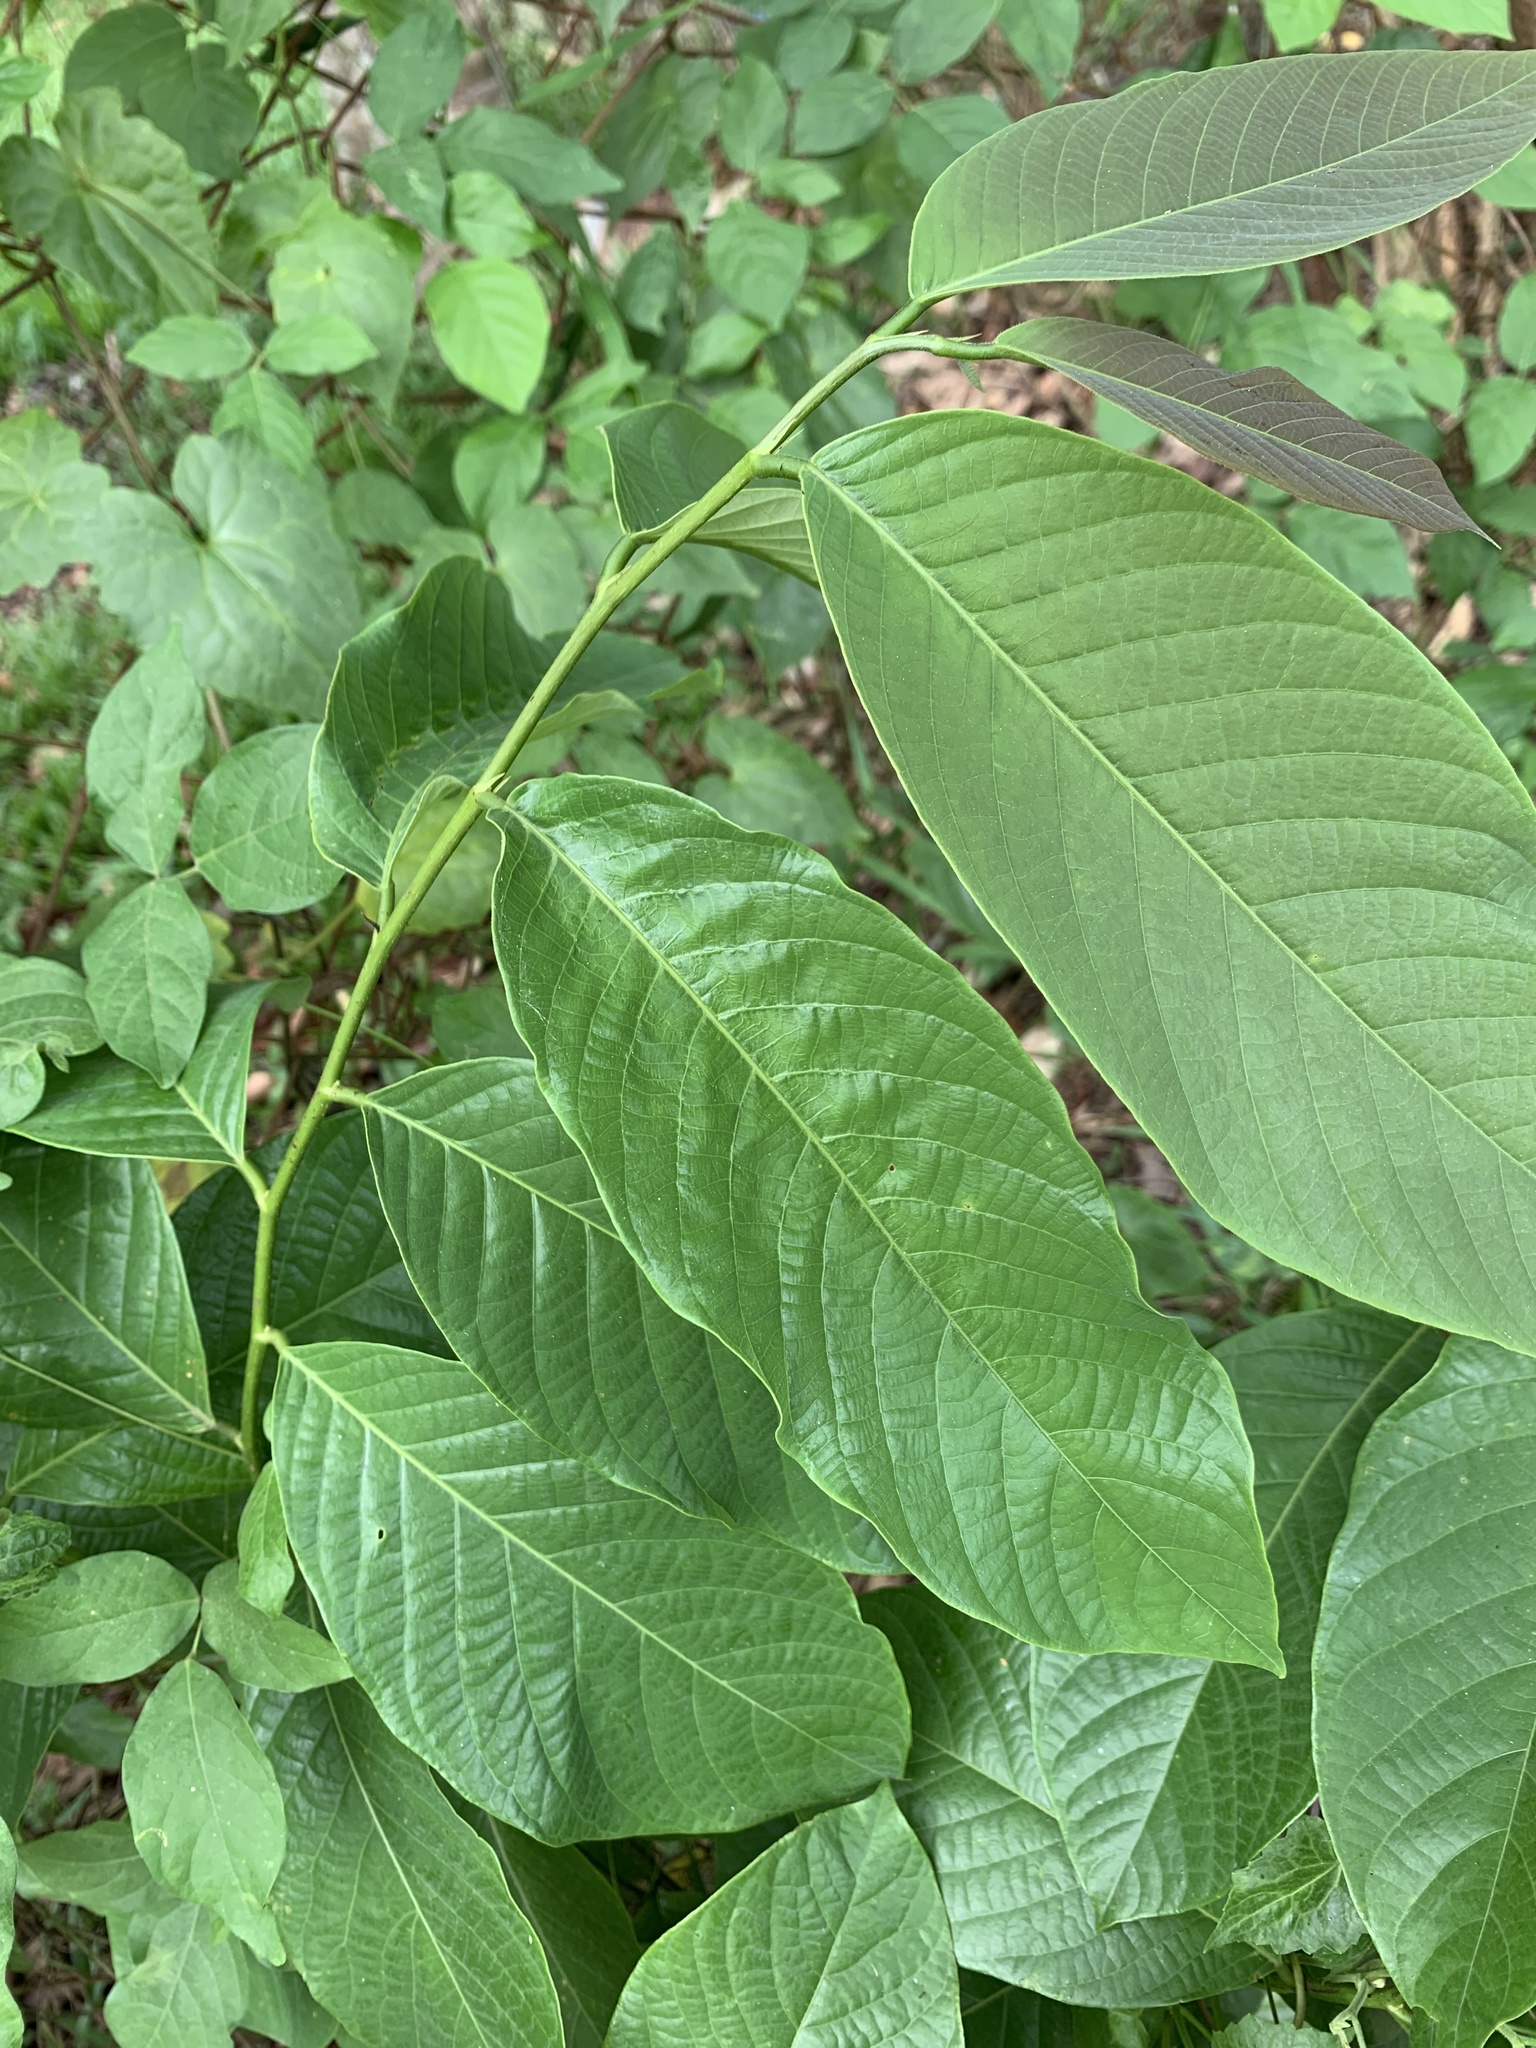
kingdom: Plantae
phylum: Tracheophyta
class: Magnoliopsida
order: Myrtales
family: Myrtaceae
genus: Psidium
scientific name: Psidium guajava
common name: Guava
